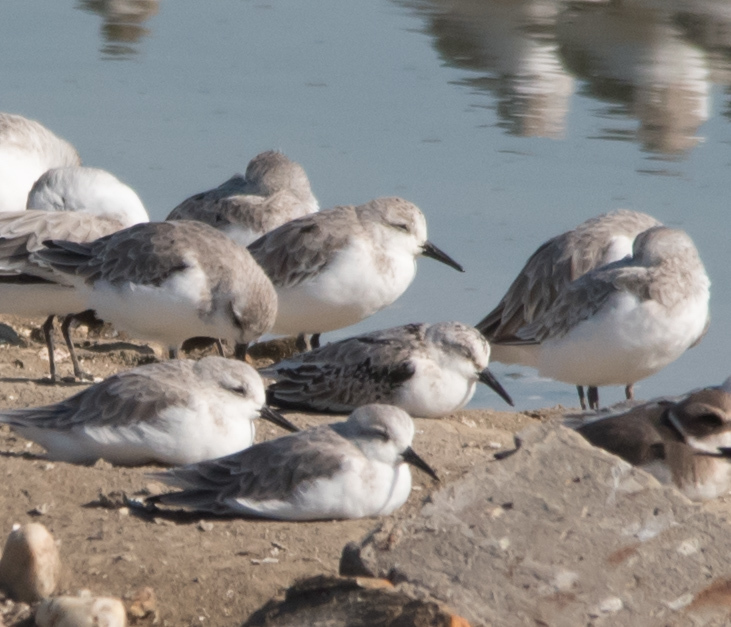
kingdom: Animalia
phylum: Chordata
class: Aves
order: Charadriiformes
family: Scolopacidae
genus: Calidris
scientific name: Calidris alba
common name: Sanderling
